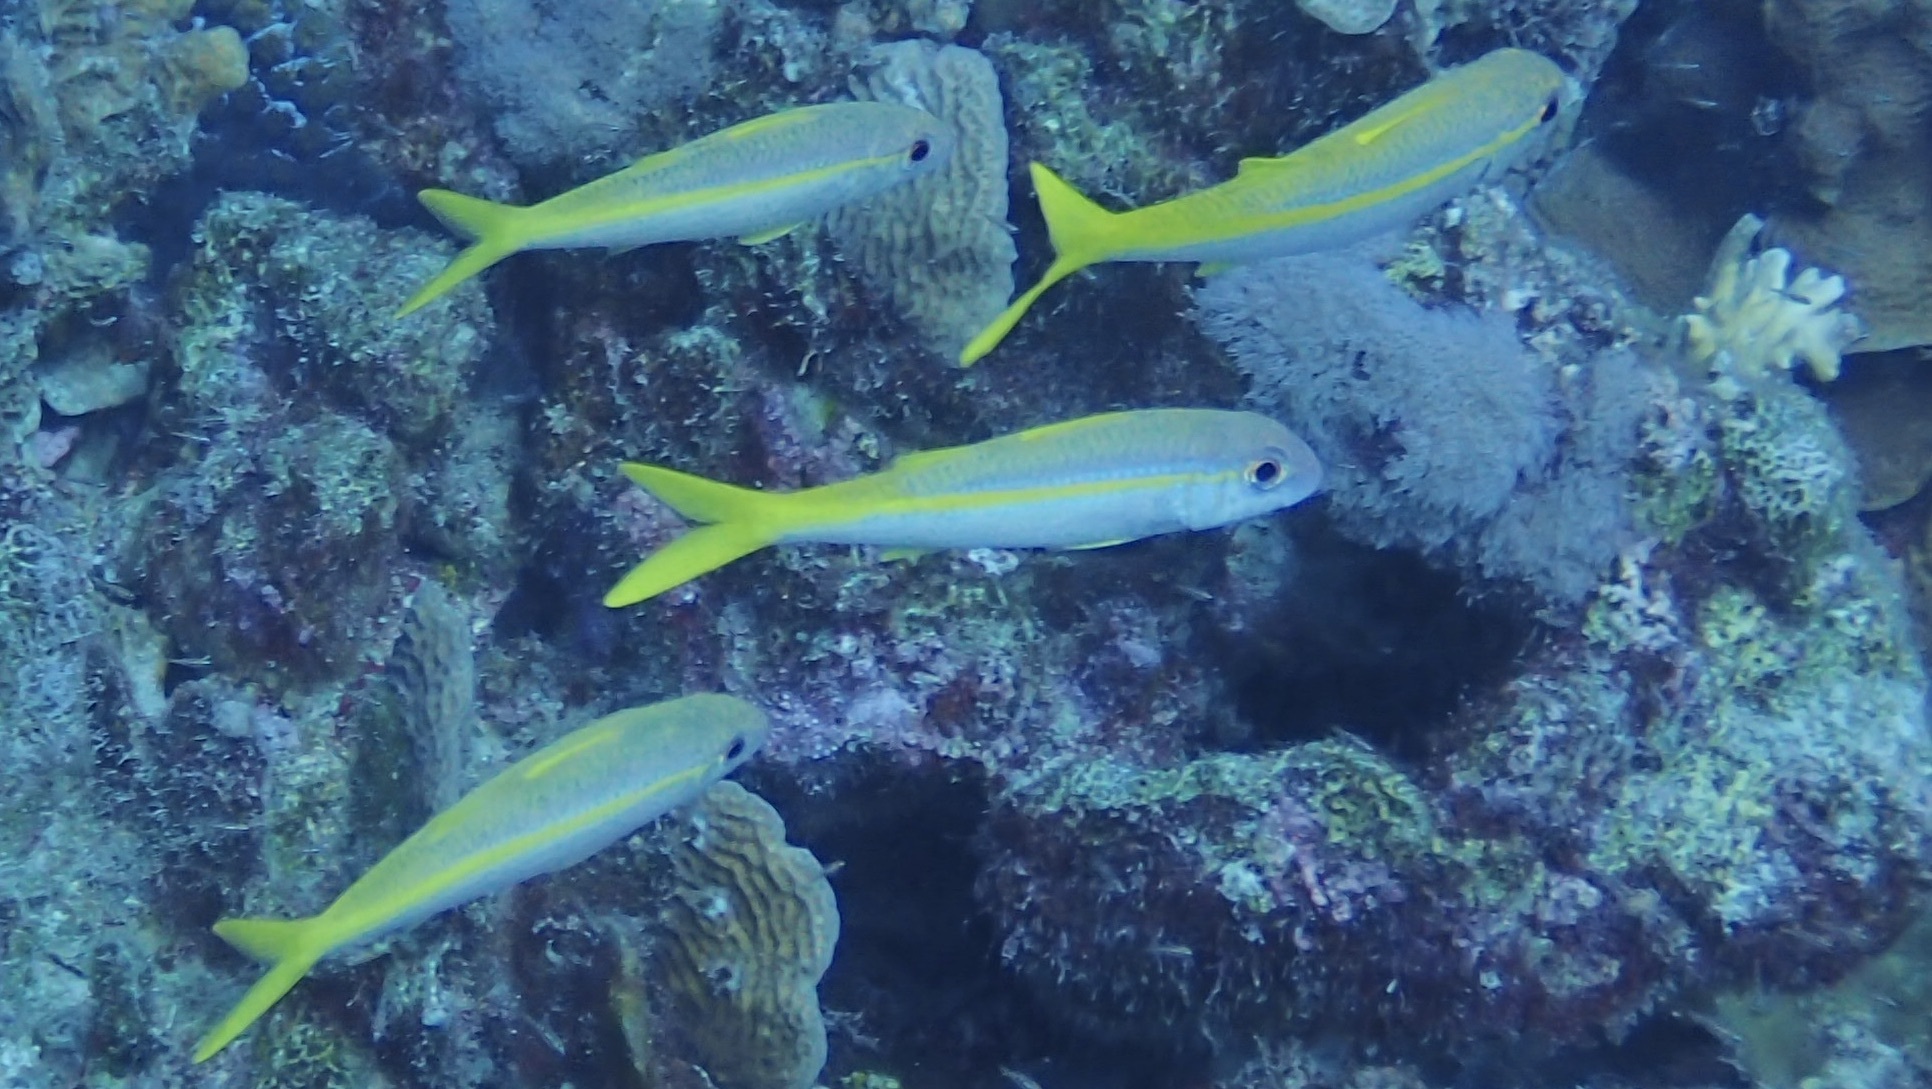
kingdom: Animalia
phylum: Chordata
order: Perciformes
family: Mullidae
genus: Mulloidichthys
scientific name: Mulloidichthys martinicus
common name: Yellow goatfish
